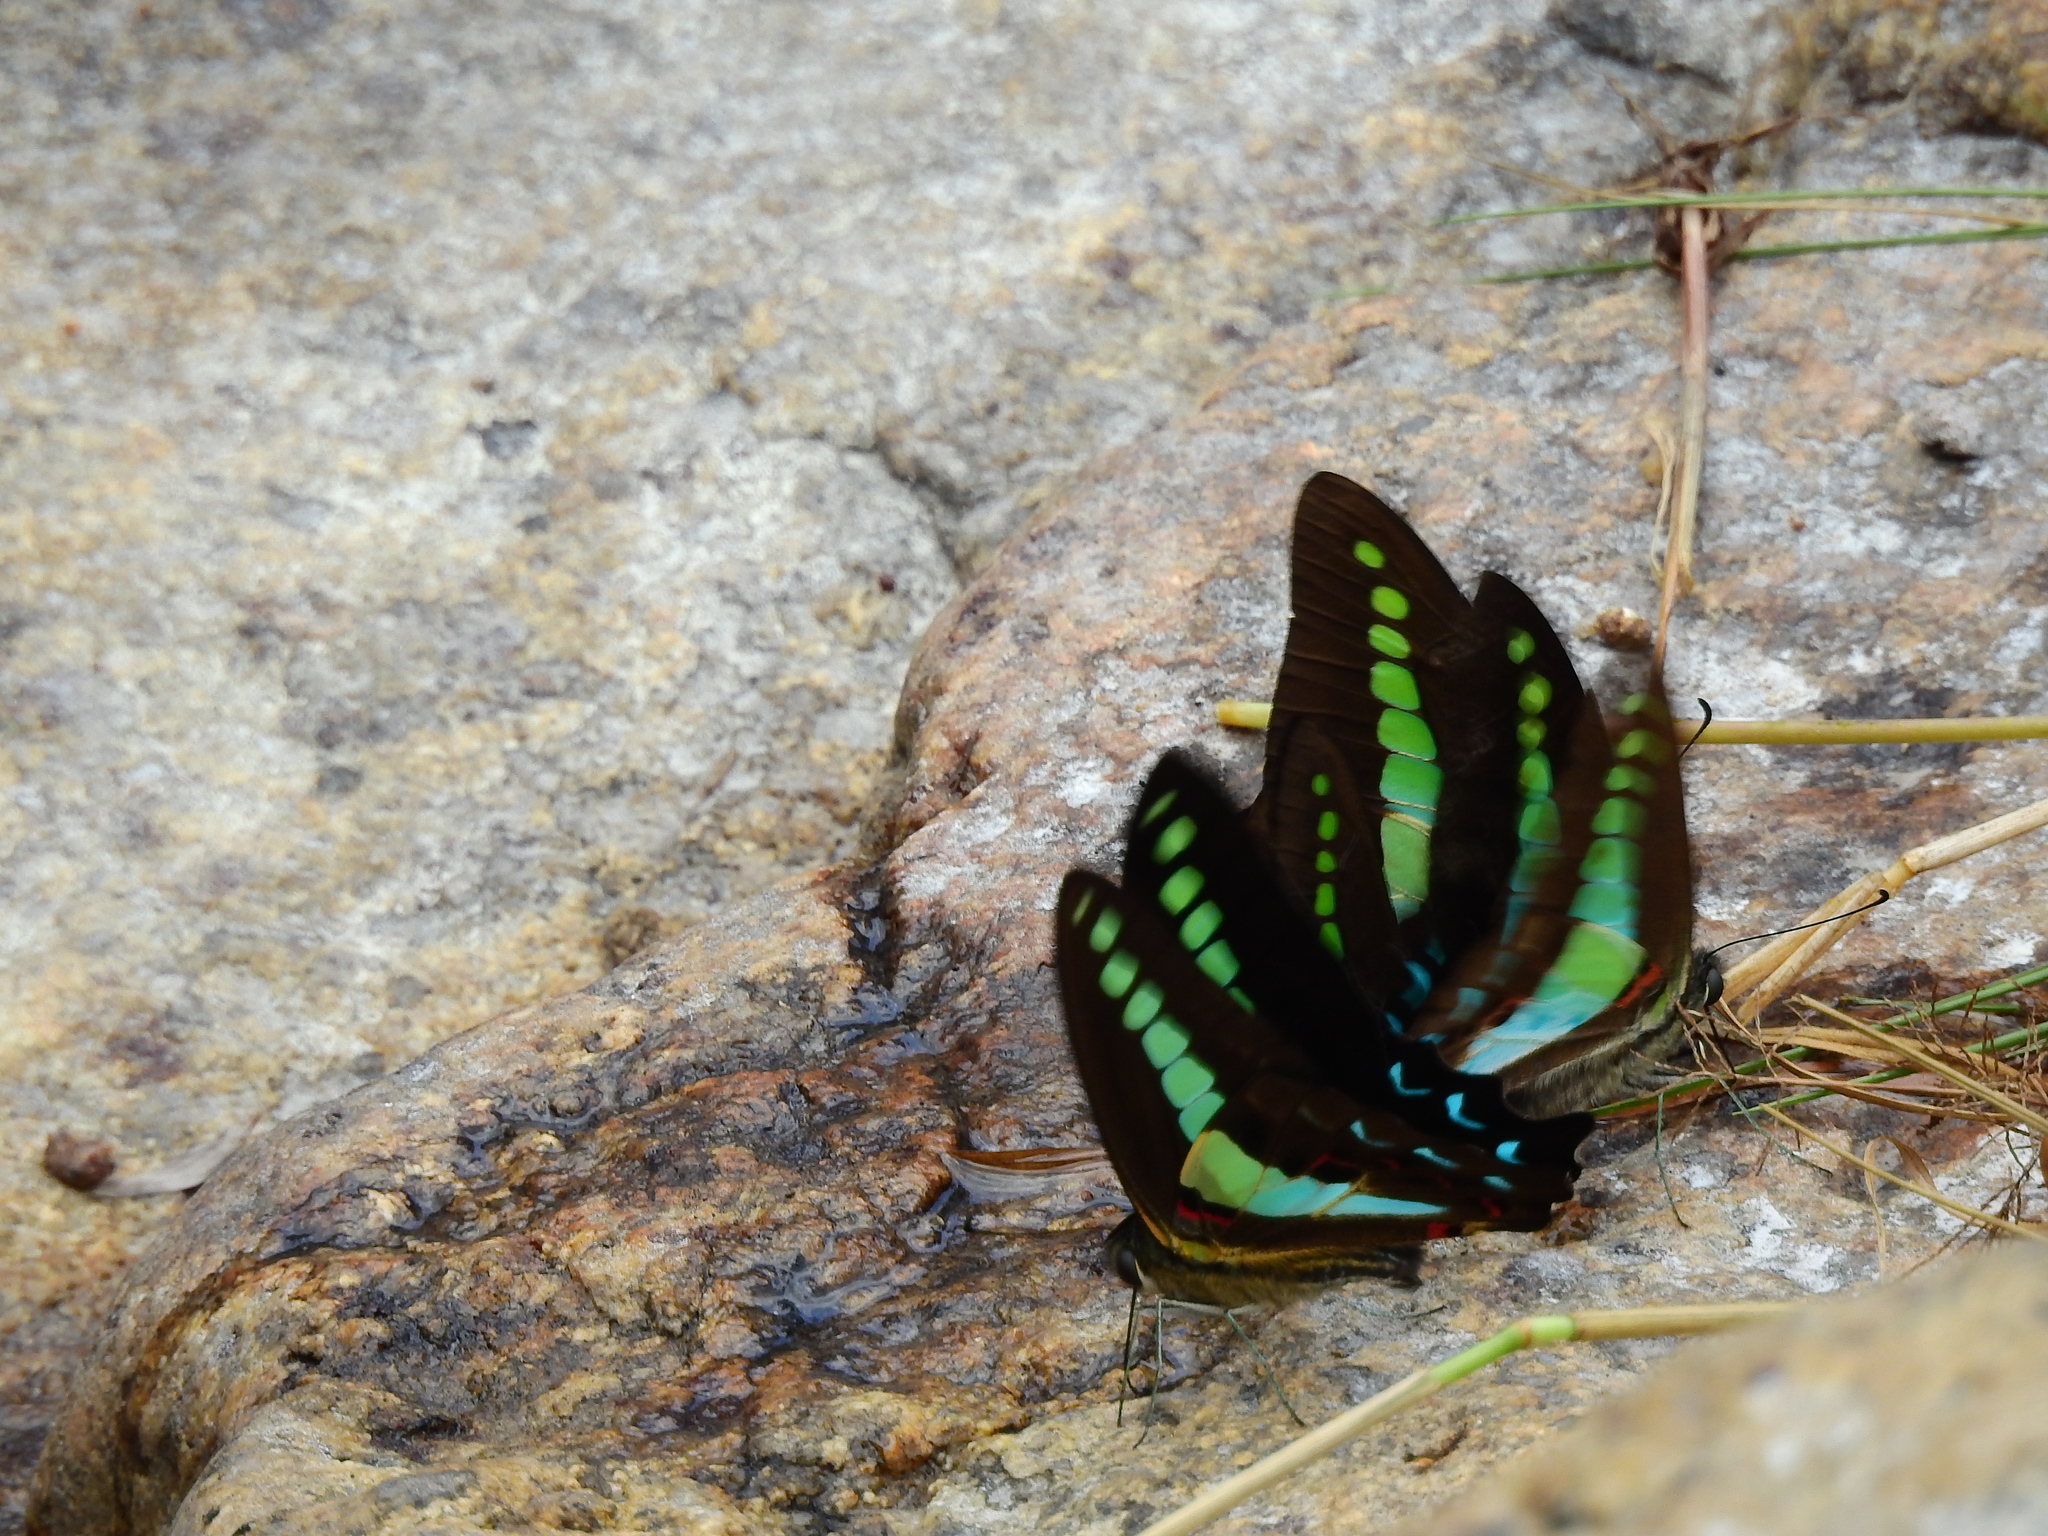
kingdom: Animalia
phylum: Arthropoda
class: Insecta
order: Lepidoptera
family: Papilionidae
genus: Graphium
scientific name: Graphium
